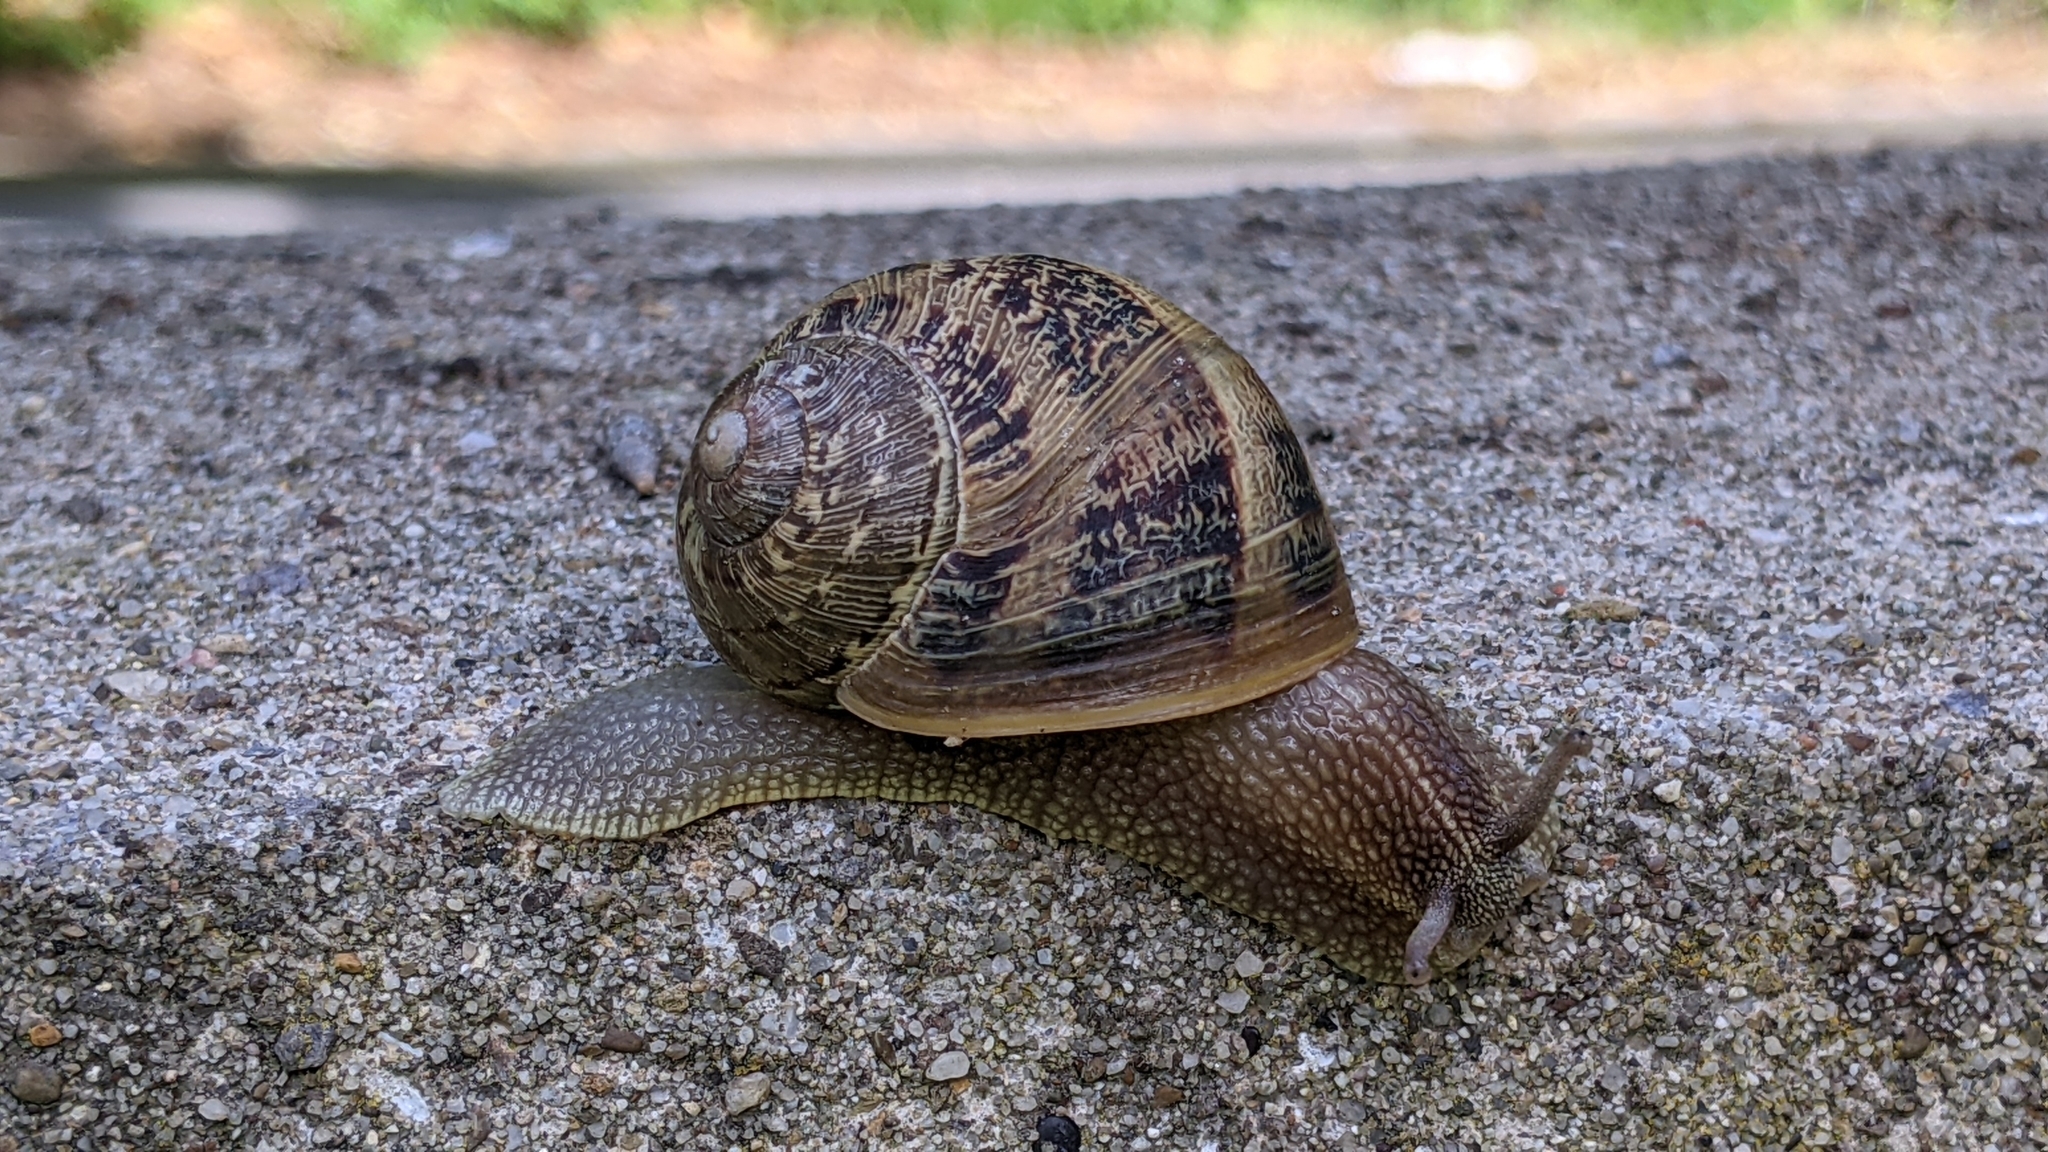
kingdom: Animalia
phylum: Mollusca
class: Gastropoda
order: Stylommatophora
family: Helicidae
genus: Cornu
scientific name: Cornu aspersum
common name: Brown garden snail
